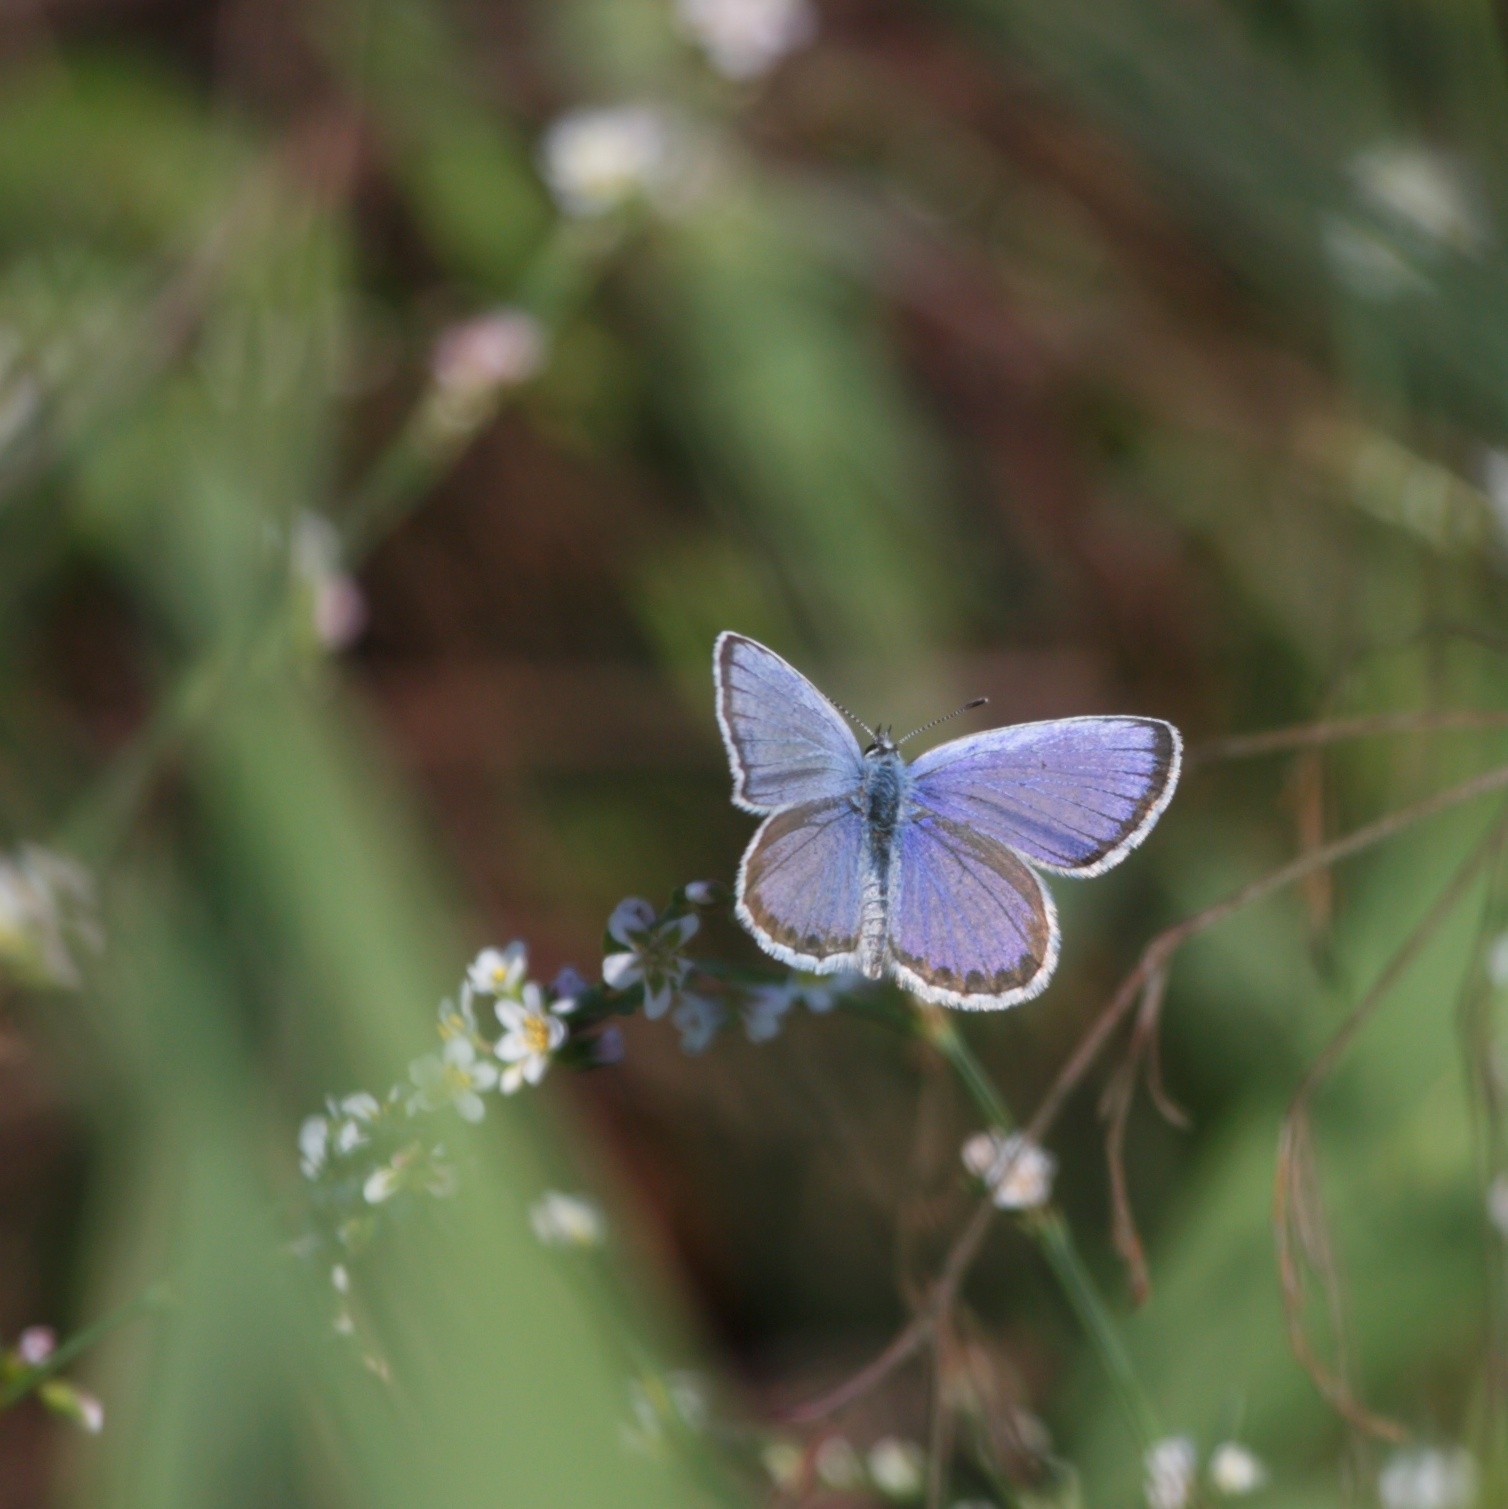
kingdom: Animalia
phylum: Arthropoda
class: Insecta
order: Lepidoptera
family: Lycaenidae
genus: Lycaeides
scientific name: Lycaeides idas
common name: Northern blue
